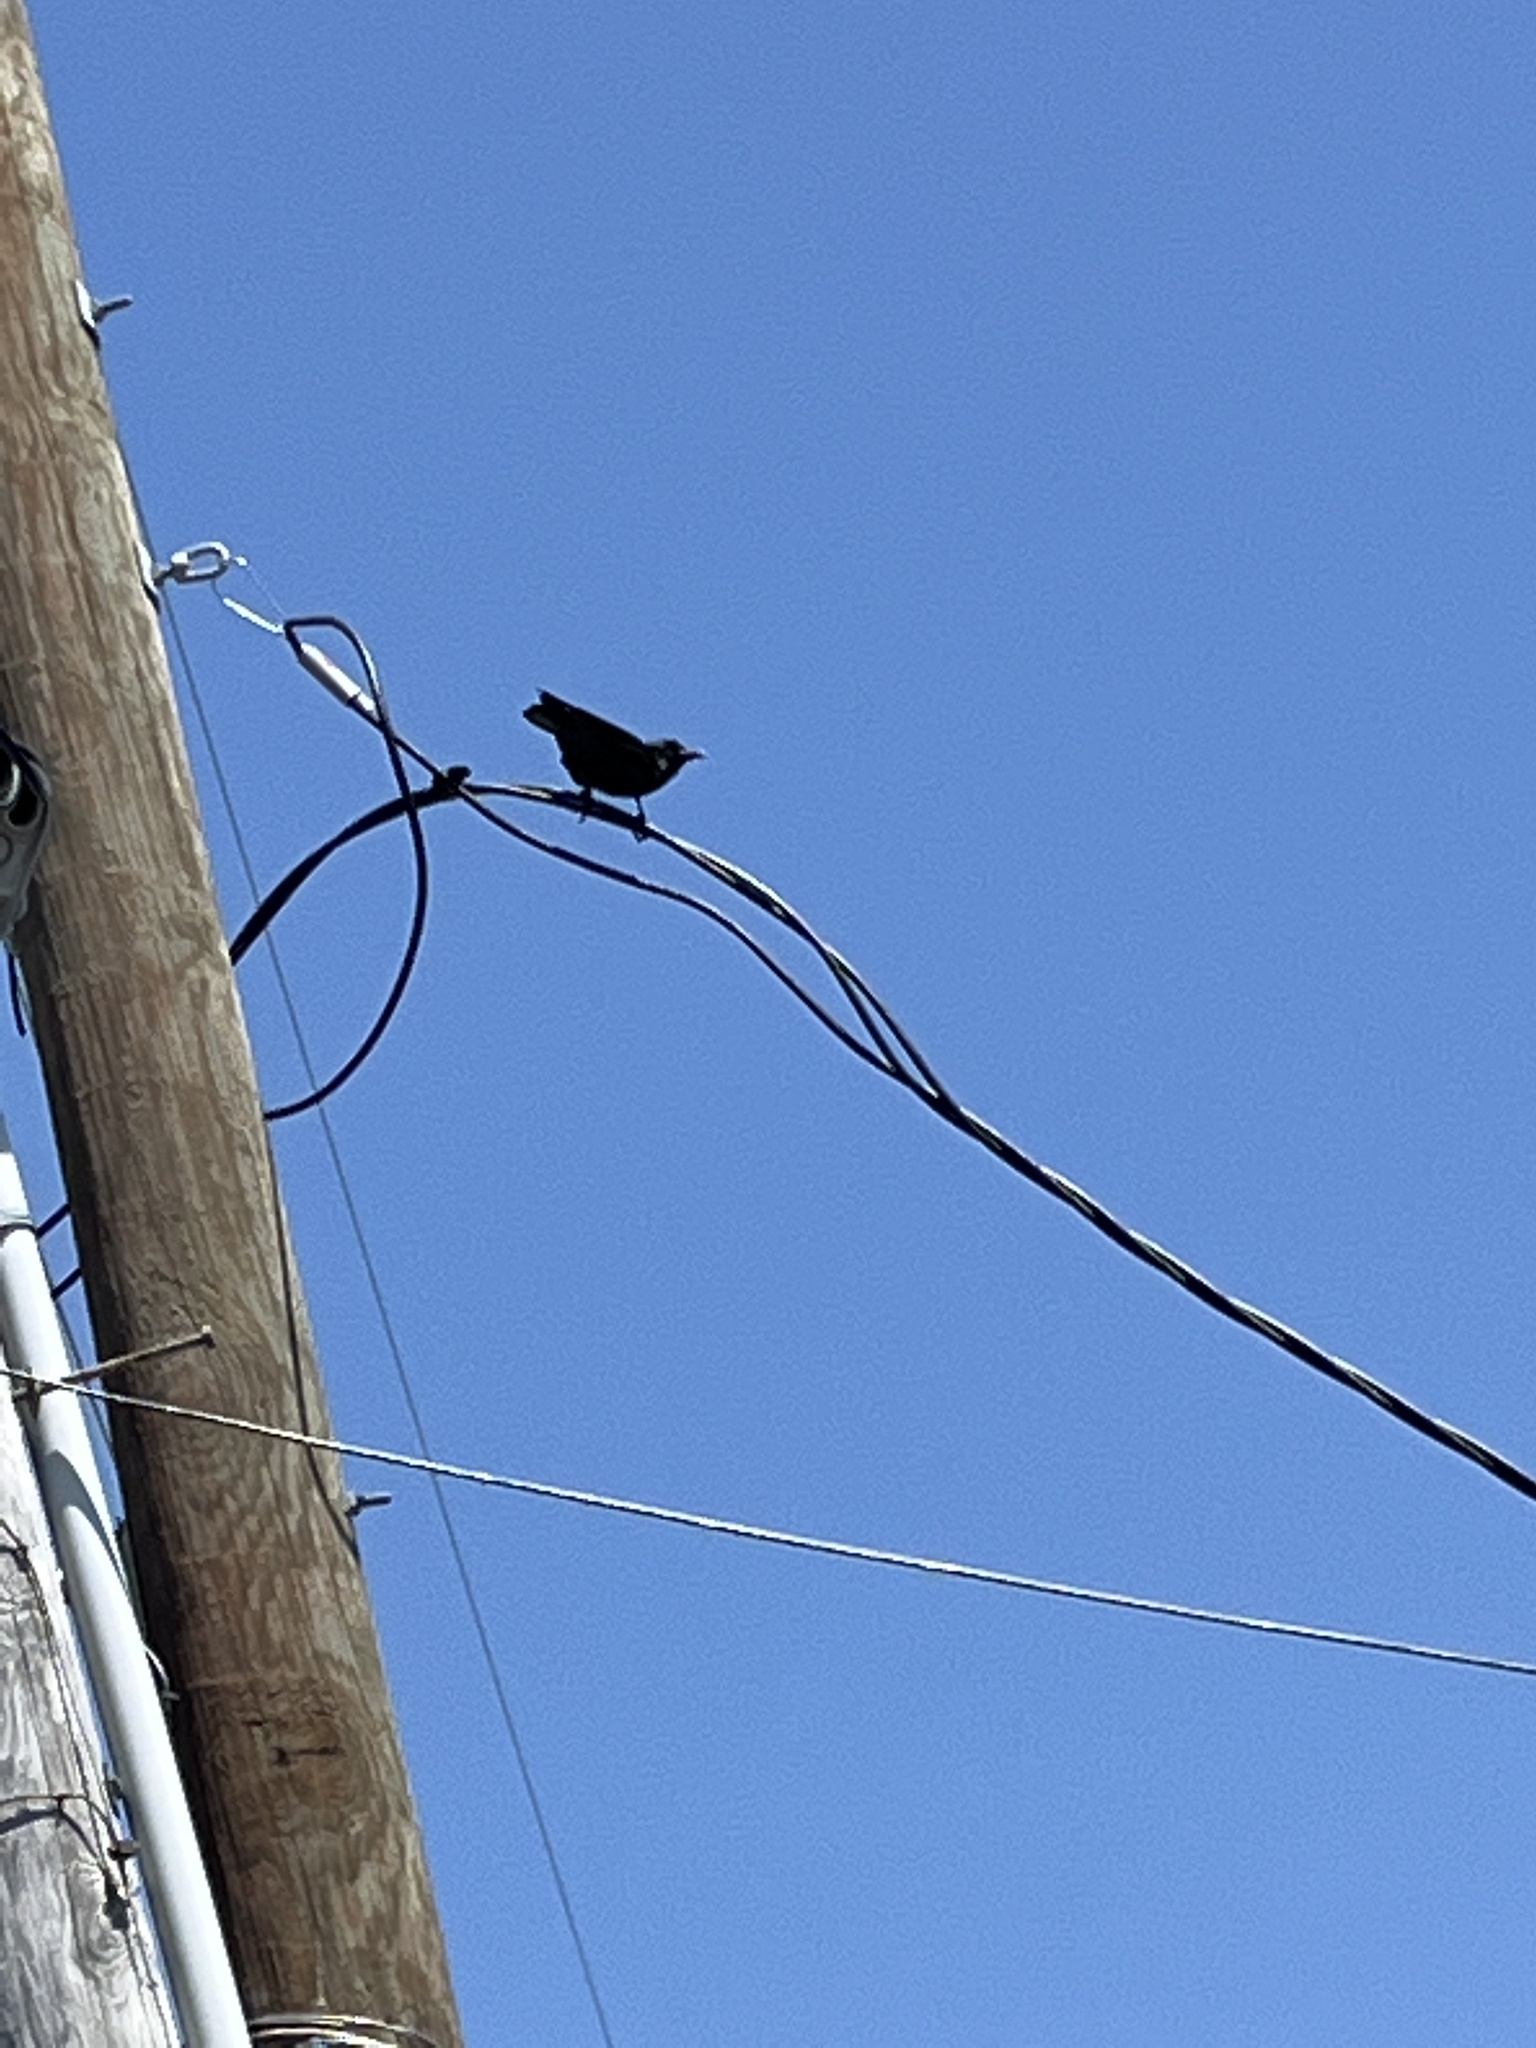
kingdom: Animalia
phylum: Chordata
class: Aves
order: Passeriformes
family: Corvidae
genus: Corvus
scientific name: Corvus brachyrhynchos
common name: American crow
